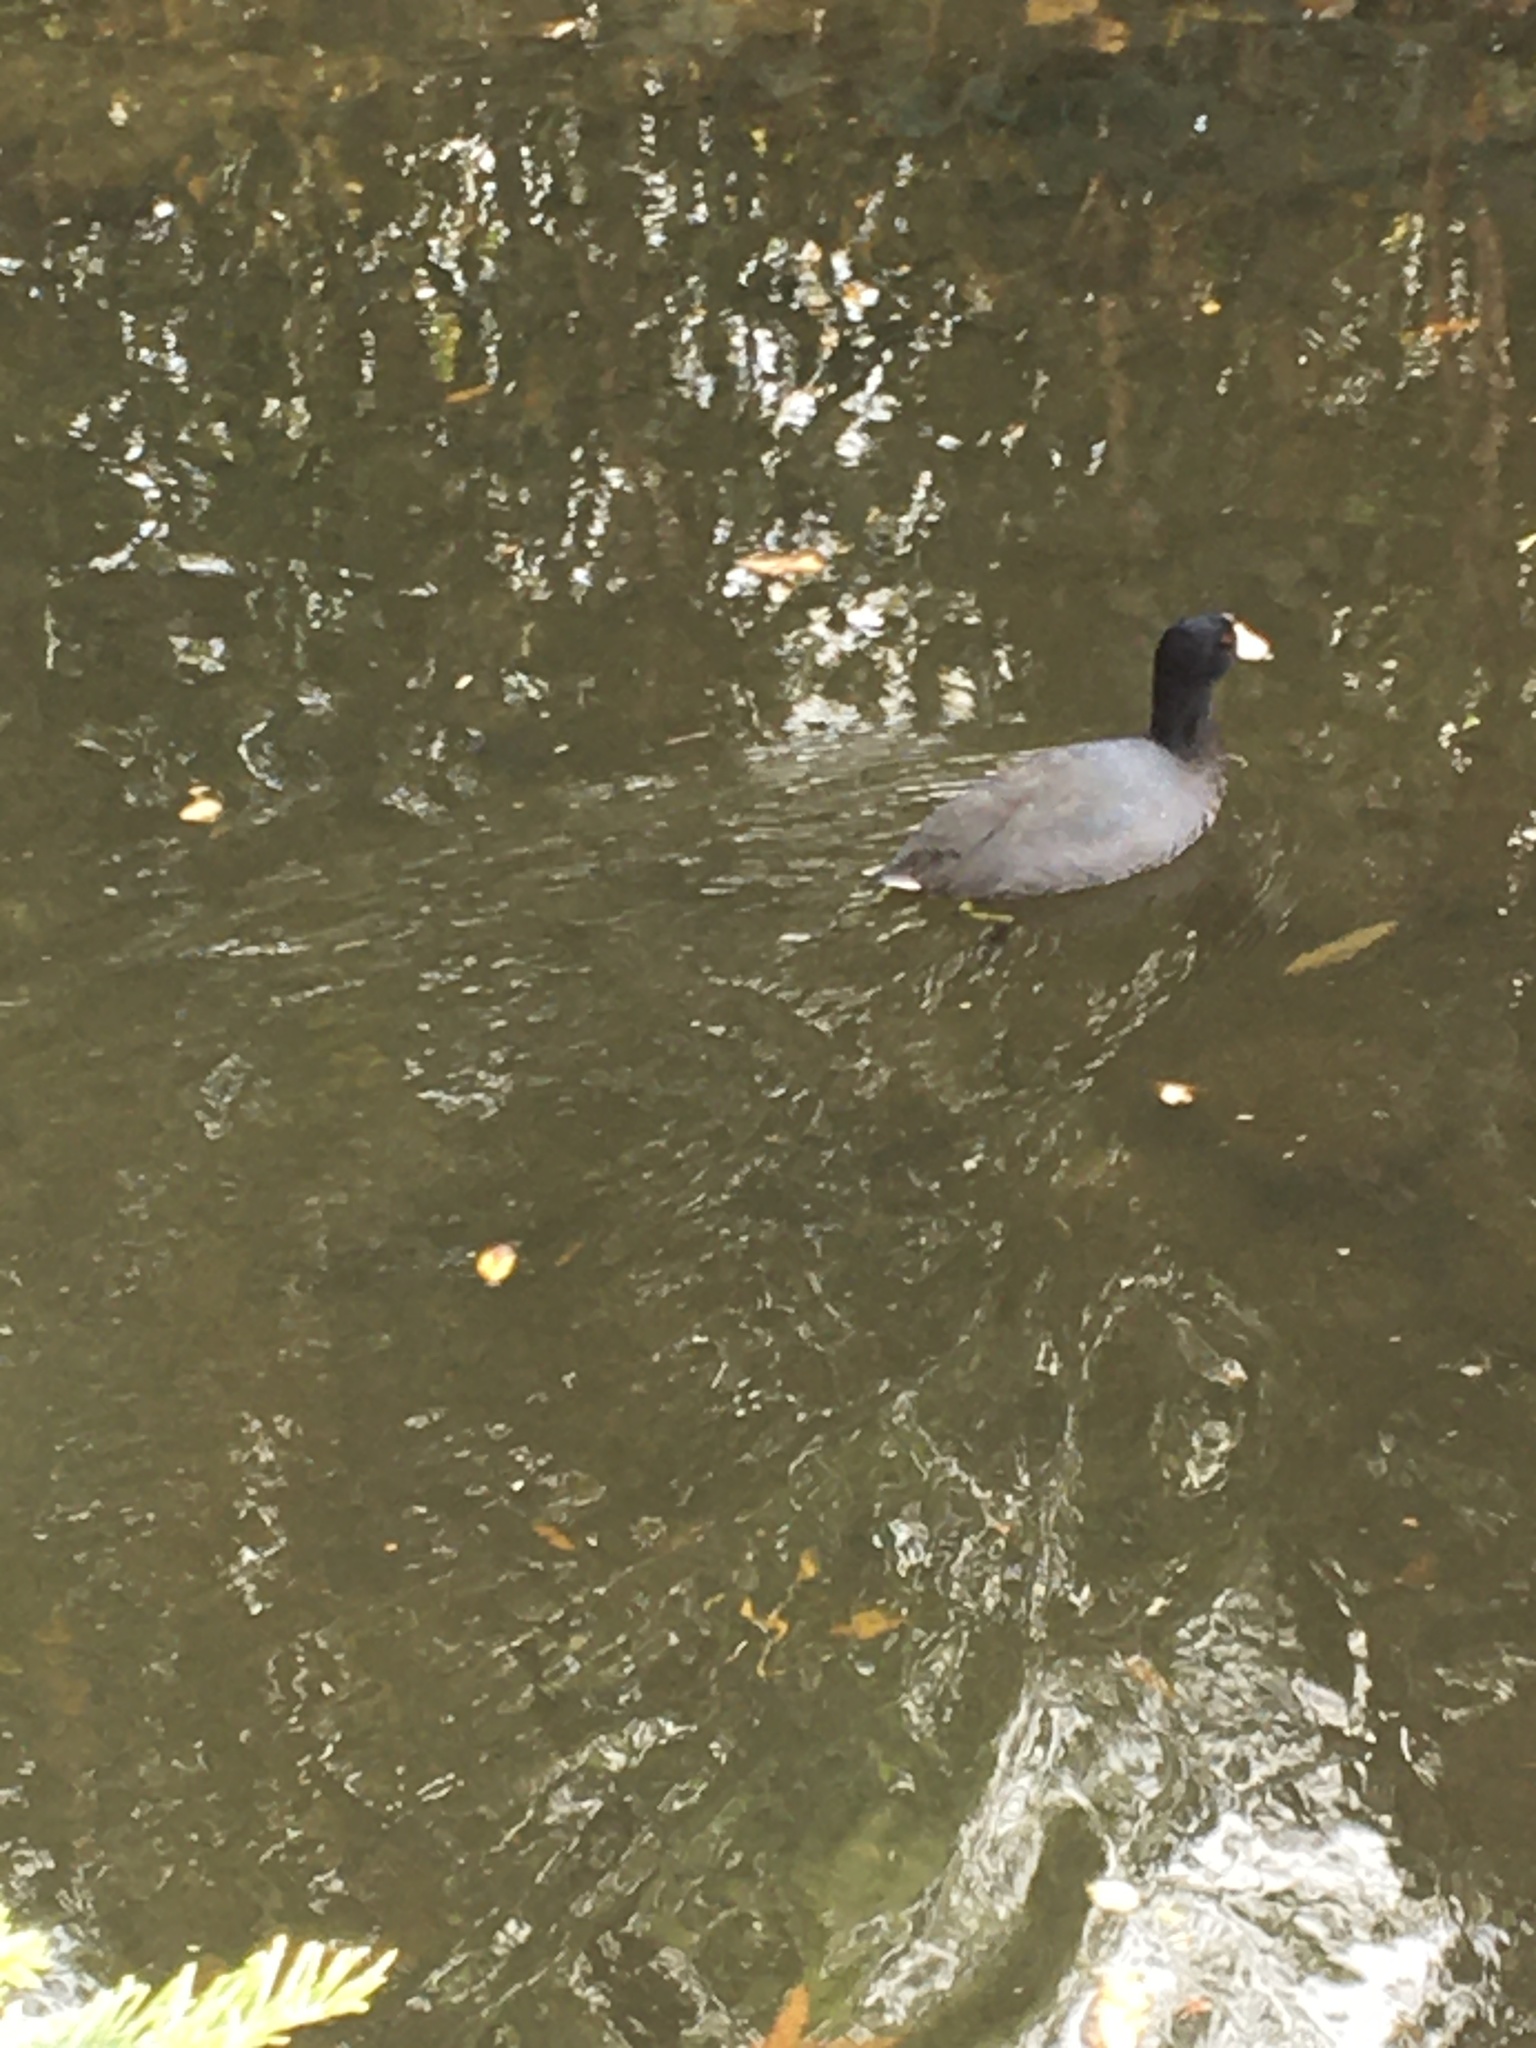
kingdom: Animalia
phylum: Chordata
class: Aves
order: Gruiformes
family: Rallidae
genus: Fulica
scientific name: Fulica americana
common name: American coot
